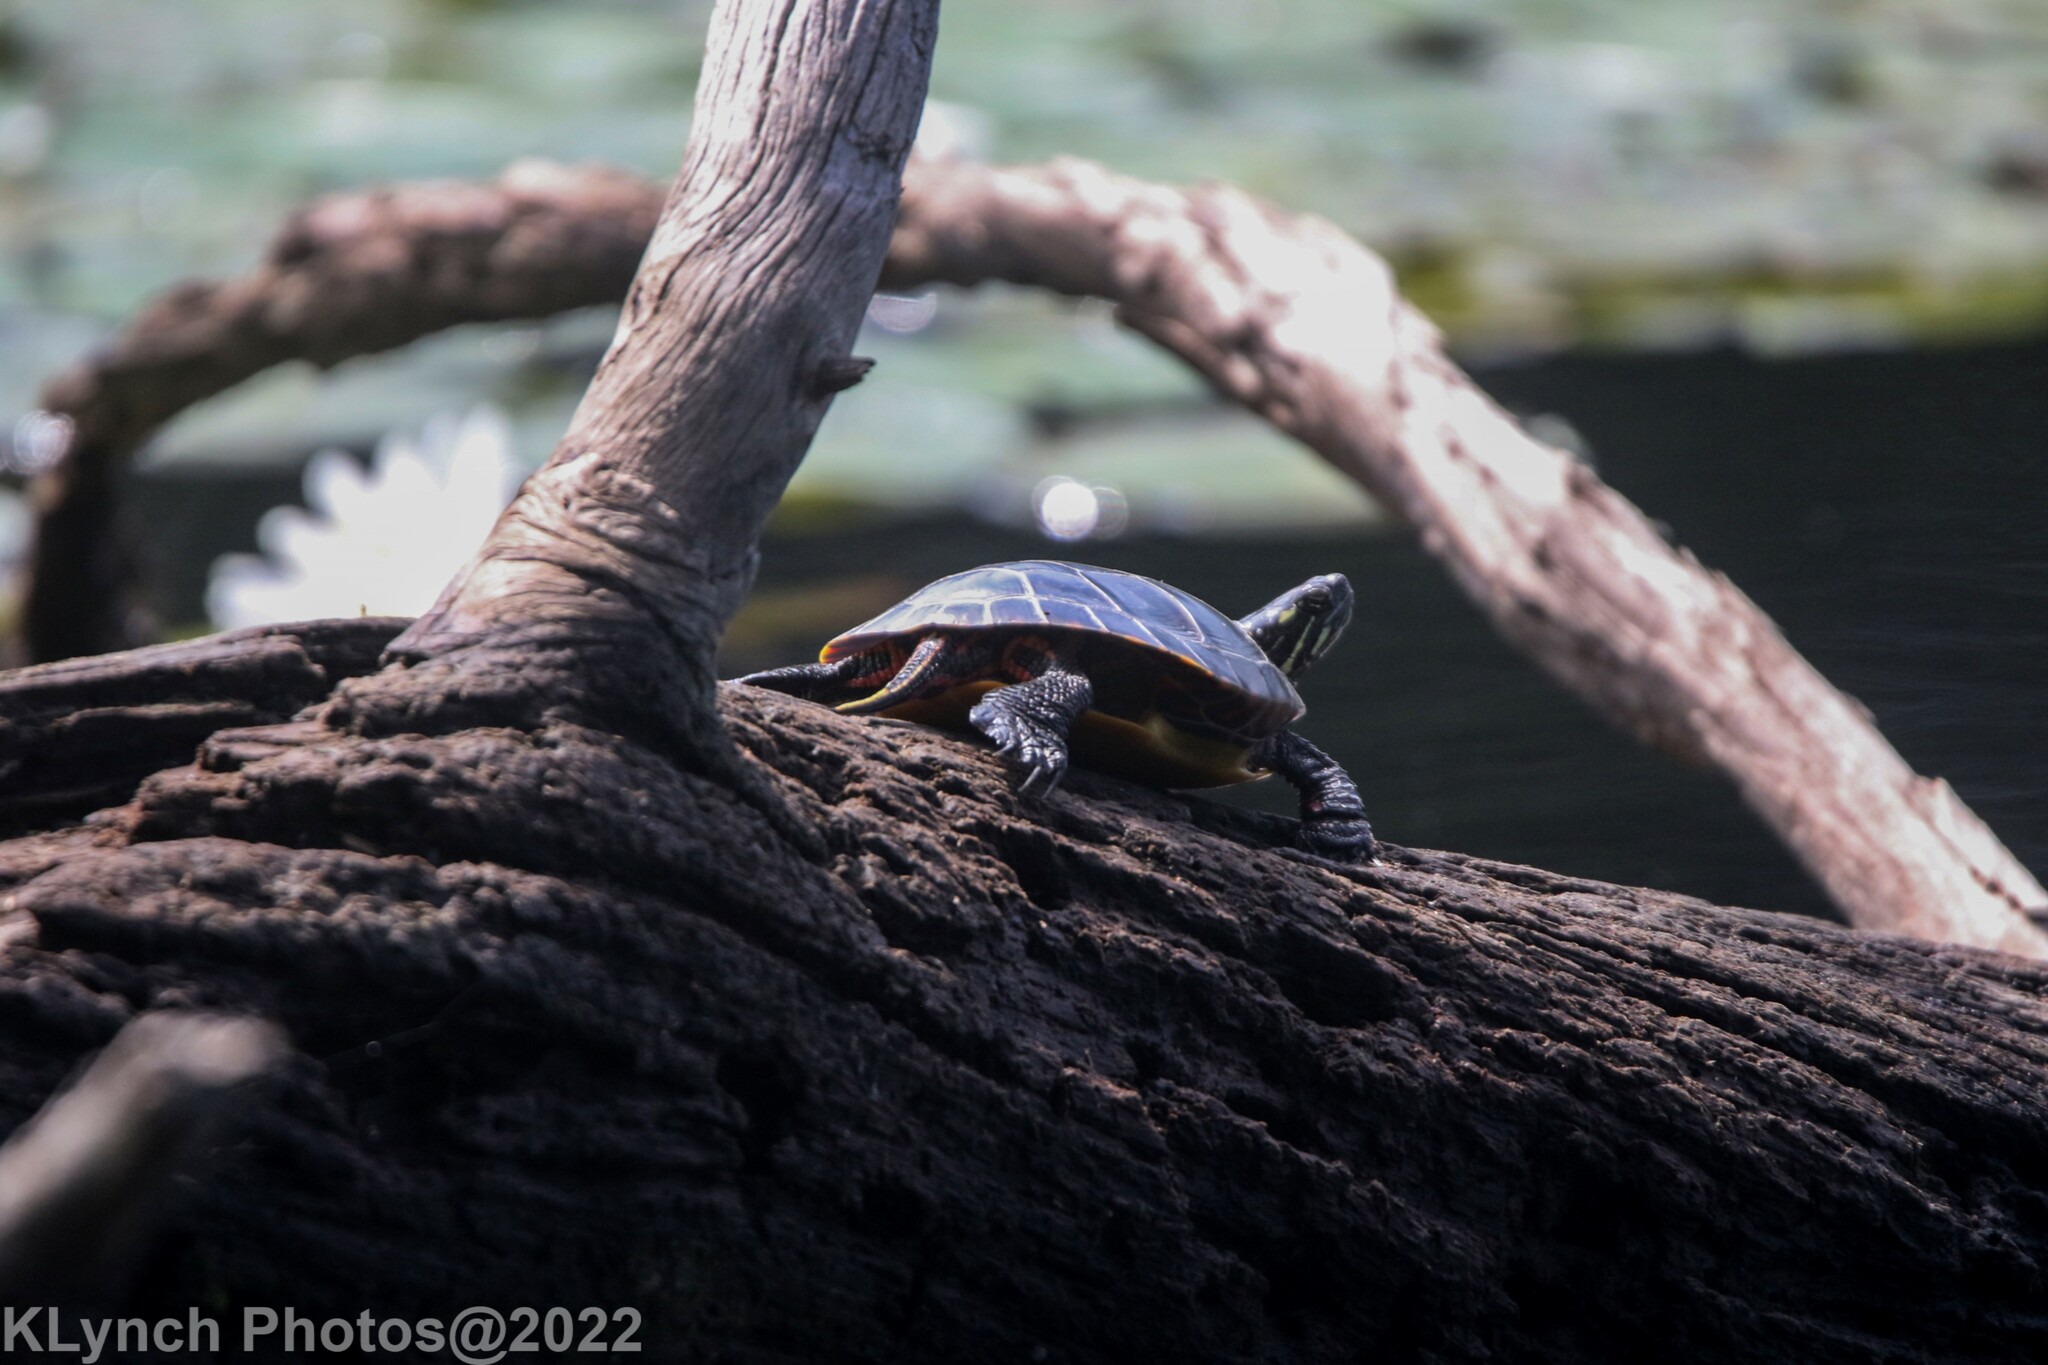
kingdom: Animalia
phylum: Chordata
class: Testudines
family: Emydidae
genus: Chrysemys
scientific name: Chrysemys picta
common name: Painted turtle
